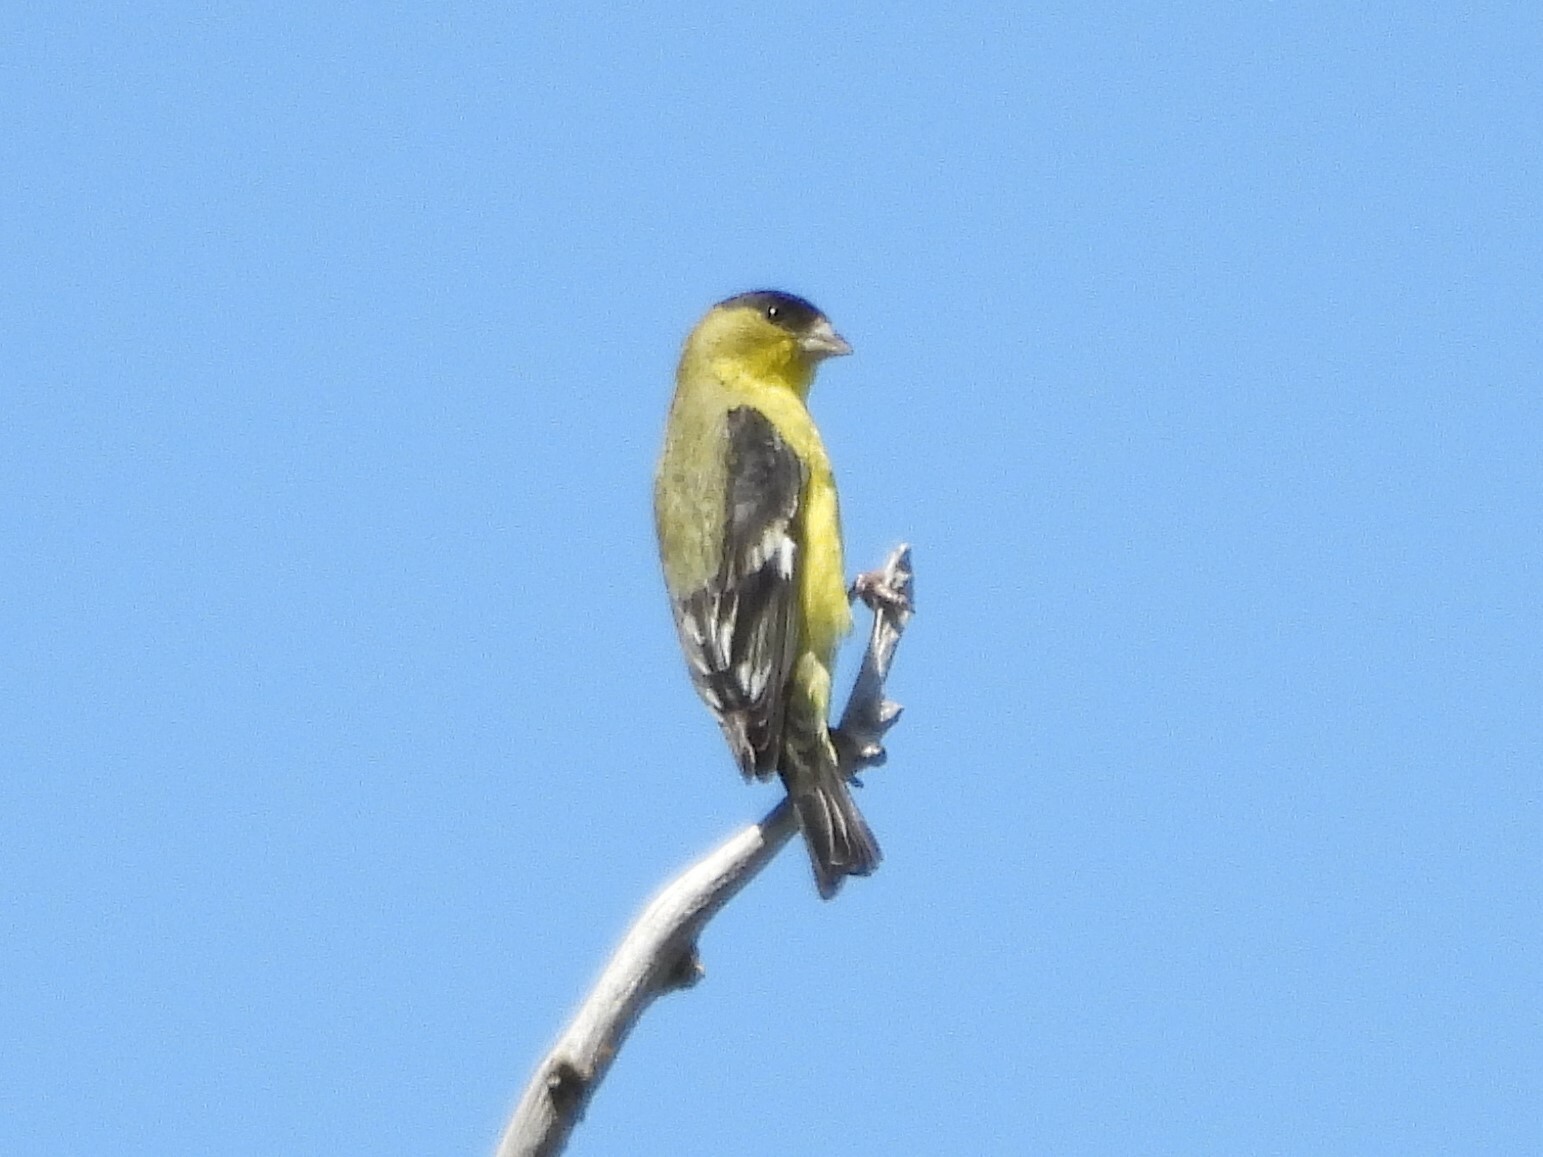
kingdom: Animalia
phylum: Chordata
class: Aves
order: Passeriformes
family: Fringillidae
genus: Spinus
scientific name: Spinus psaltria
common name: Lesser goldfinch
